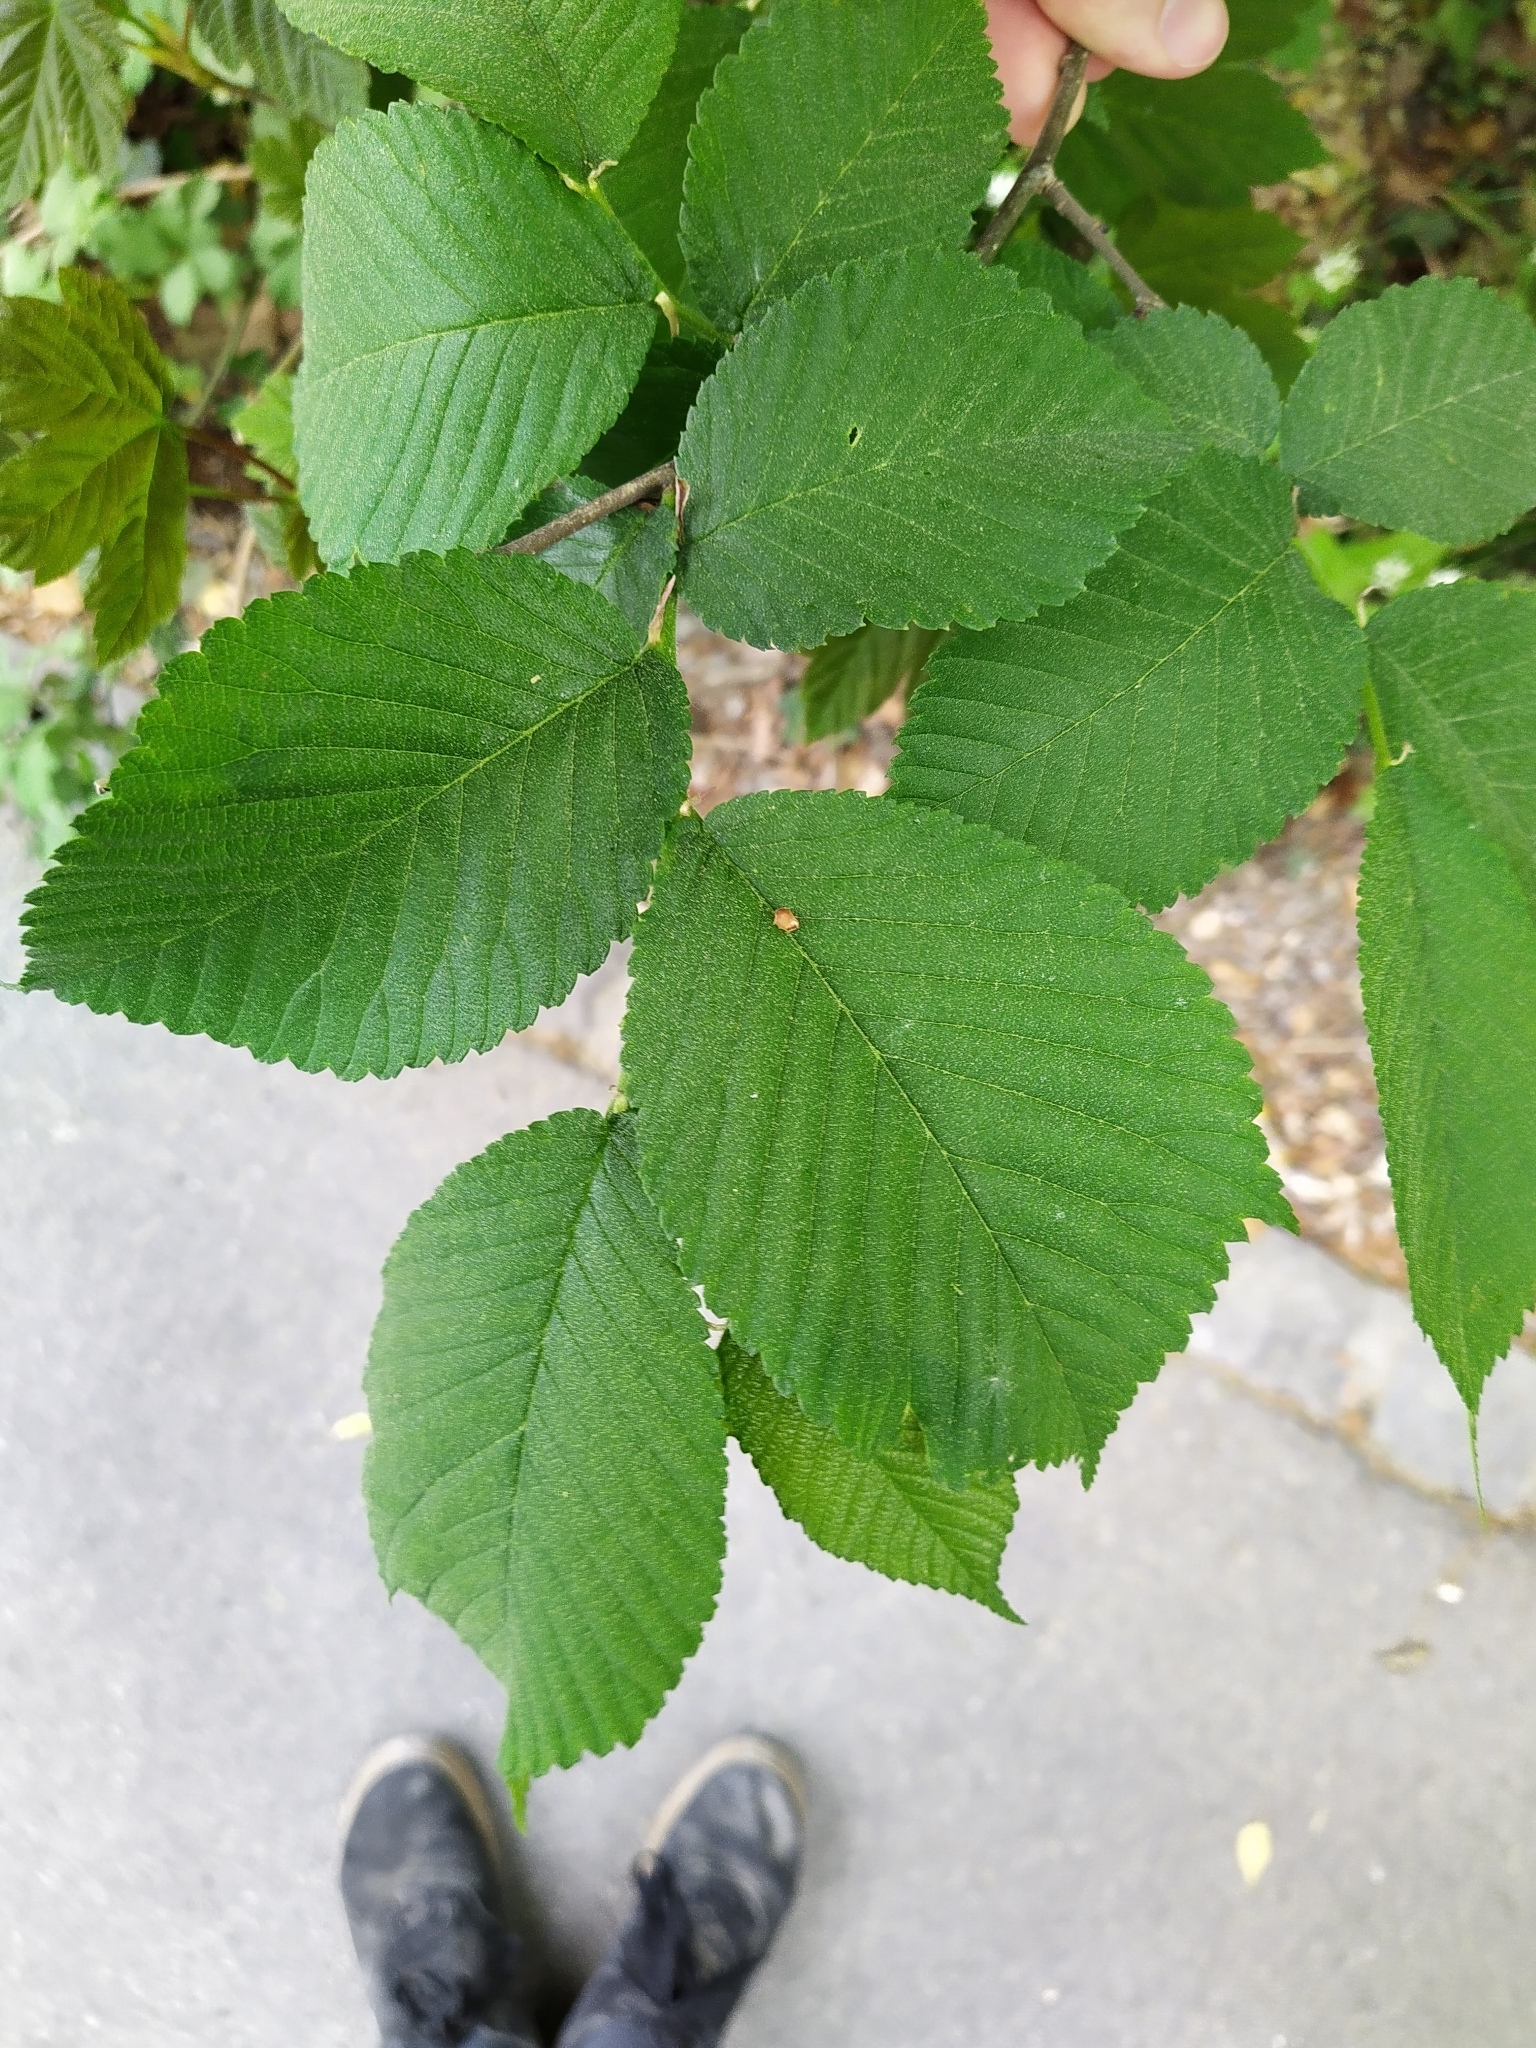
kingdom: Plantae
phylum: Tracheophyta
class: Magnoliopsida
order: Rosales
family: Ulmaceae
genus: Ulmus
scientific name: Ulmus glabra
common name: Wych elm
